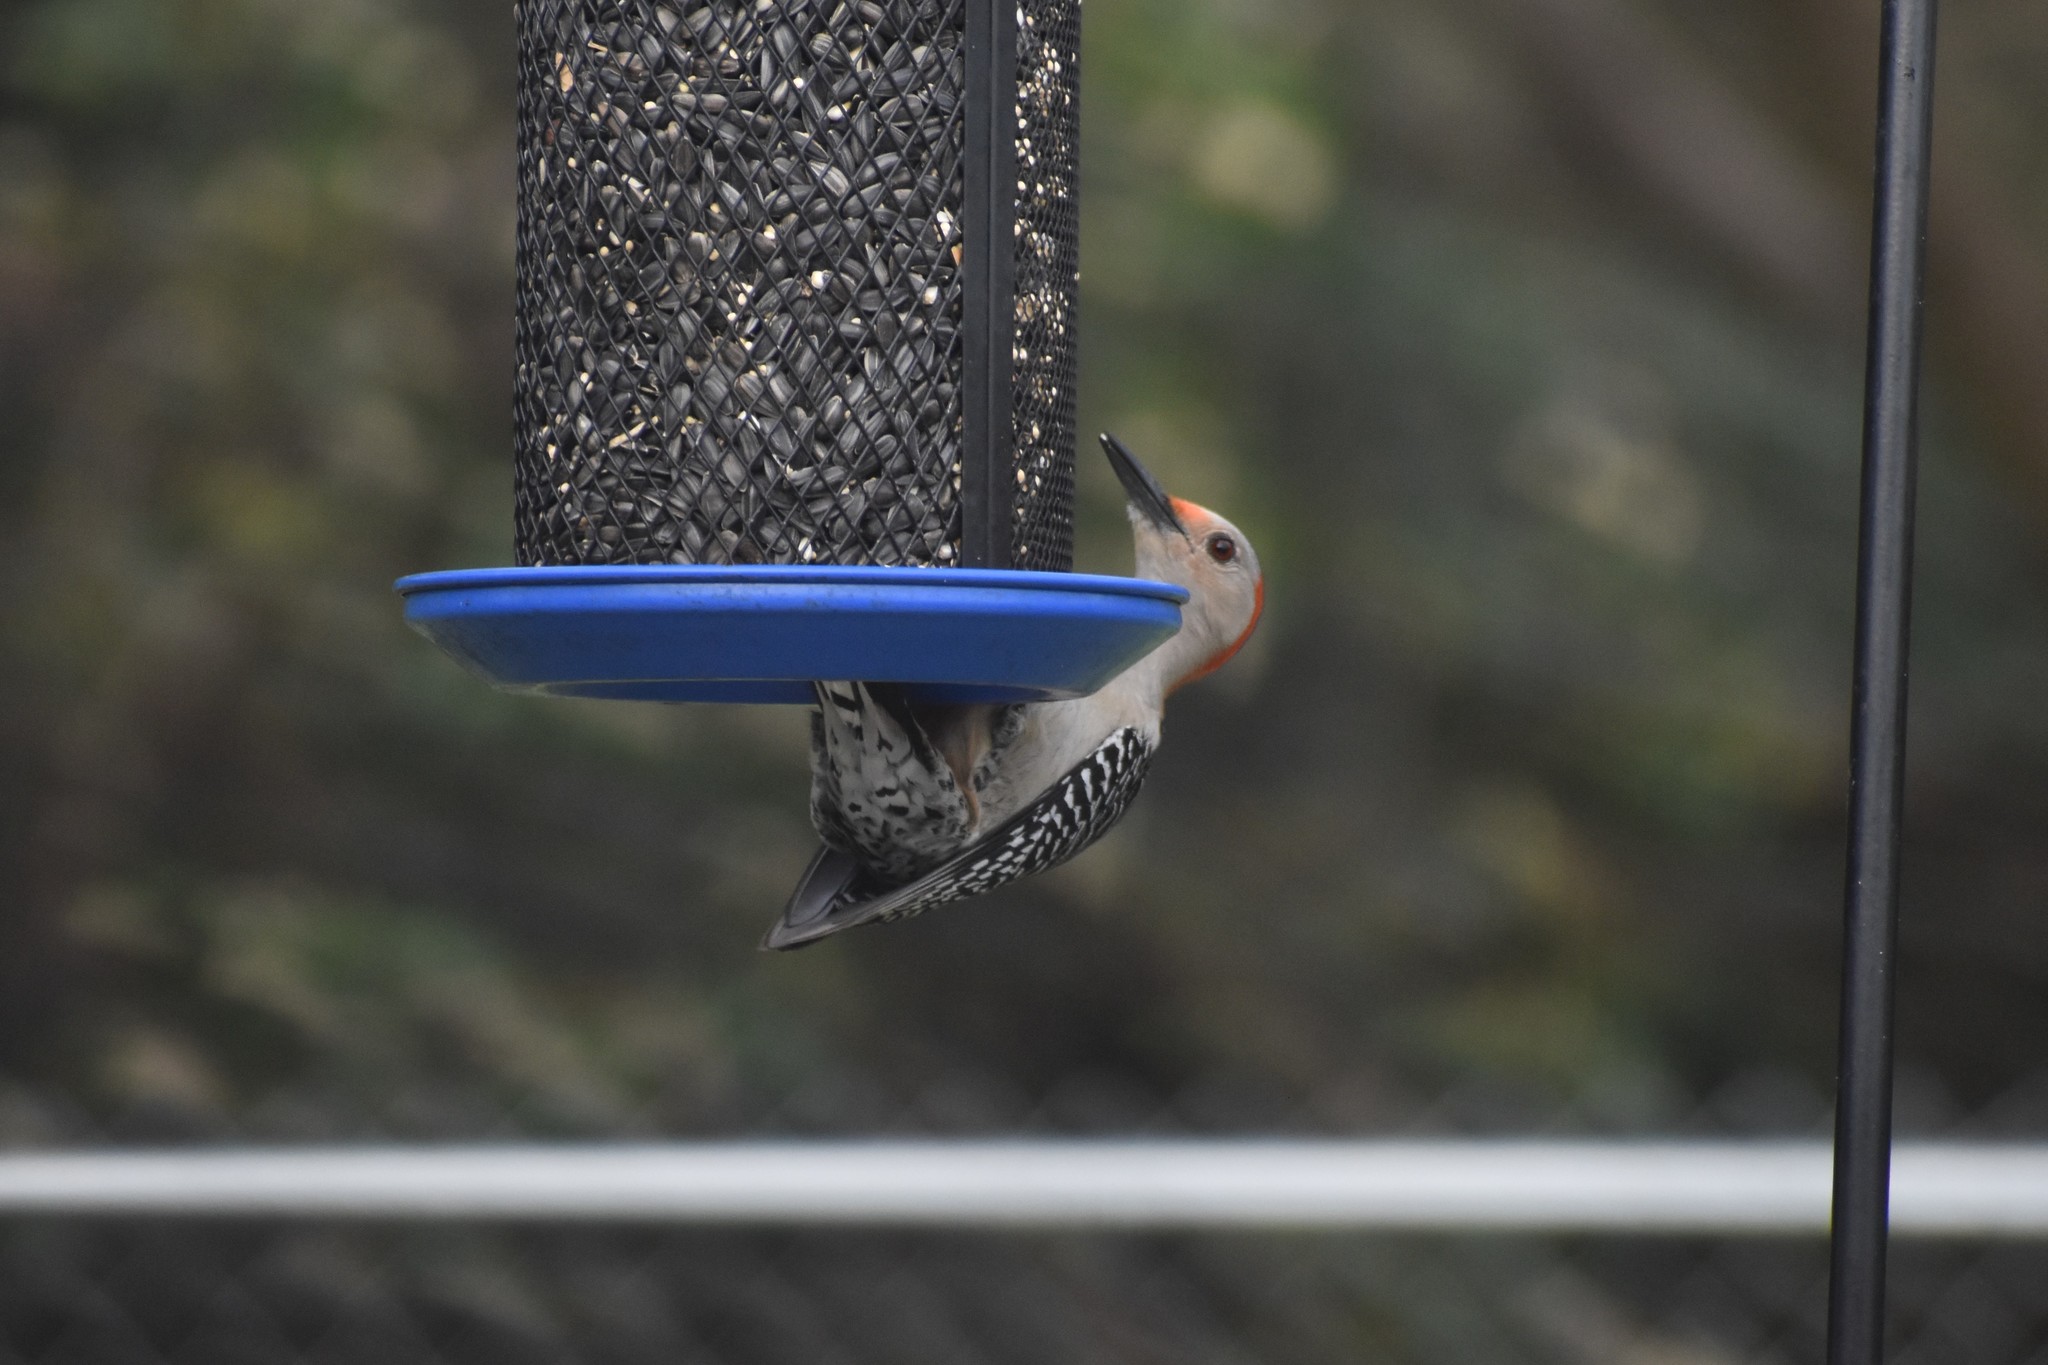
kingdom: Animalia
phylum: Chordata
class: Aves
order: Piciformes
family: Picidae
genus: Melanerpes
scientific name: Melanerpes carolinus
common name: Red-bellied woodpecker
